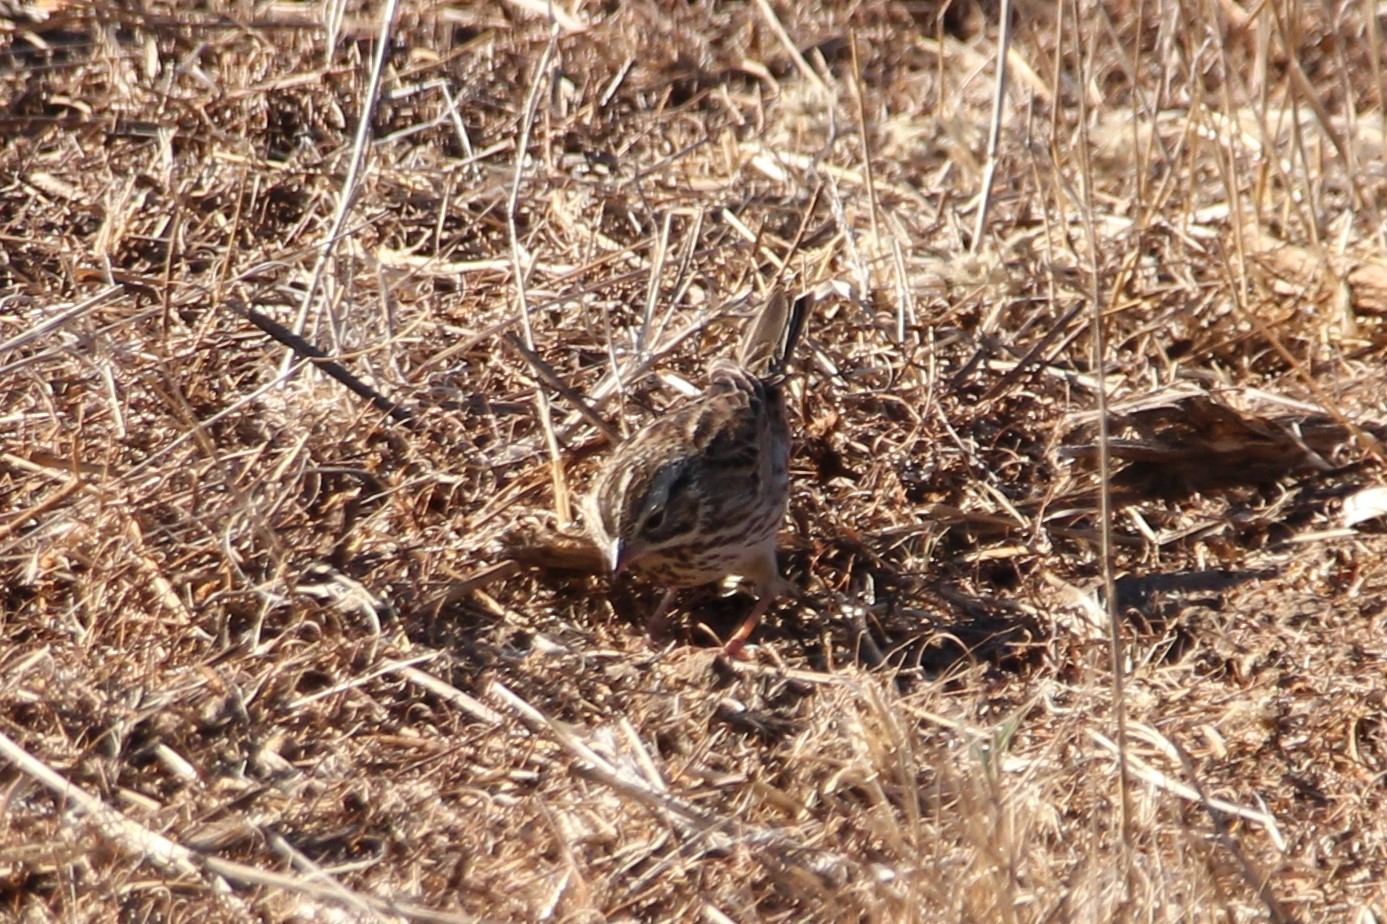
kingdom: Animalia
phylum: Chordata
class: Aves
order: Passeriformes
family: Passerellidae
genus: Passerculus
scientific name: Passerculus sandwichensis
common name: Savannah sparrow
